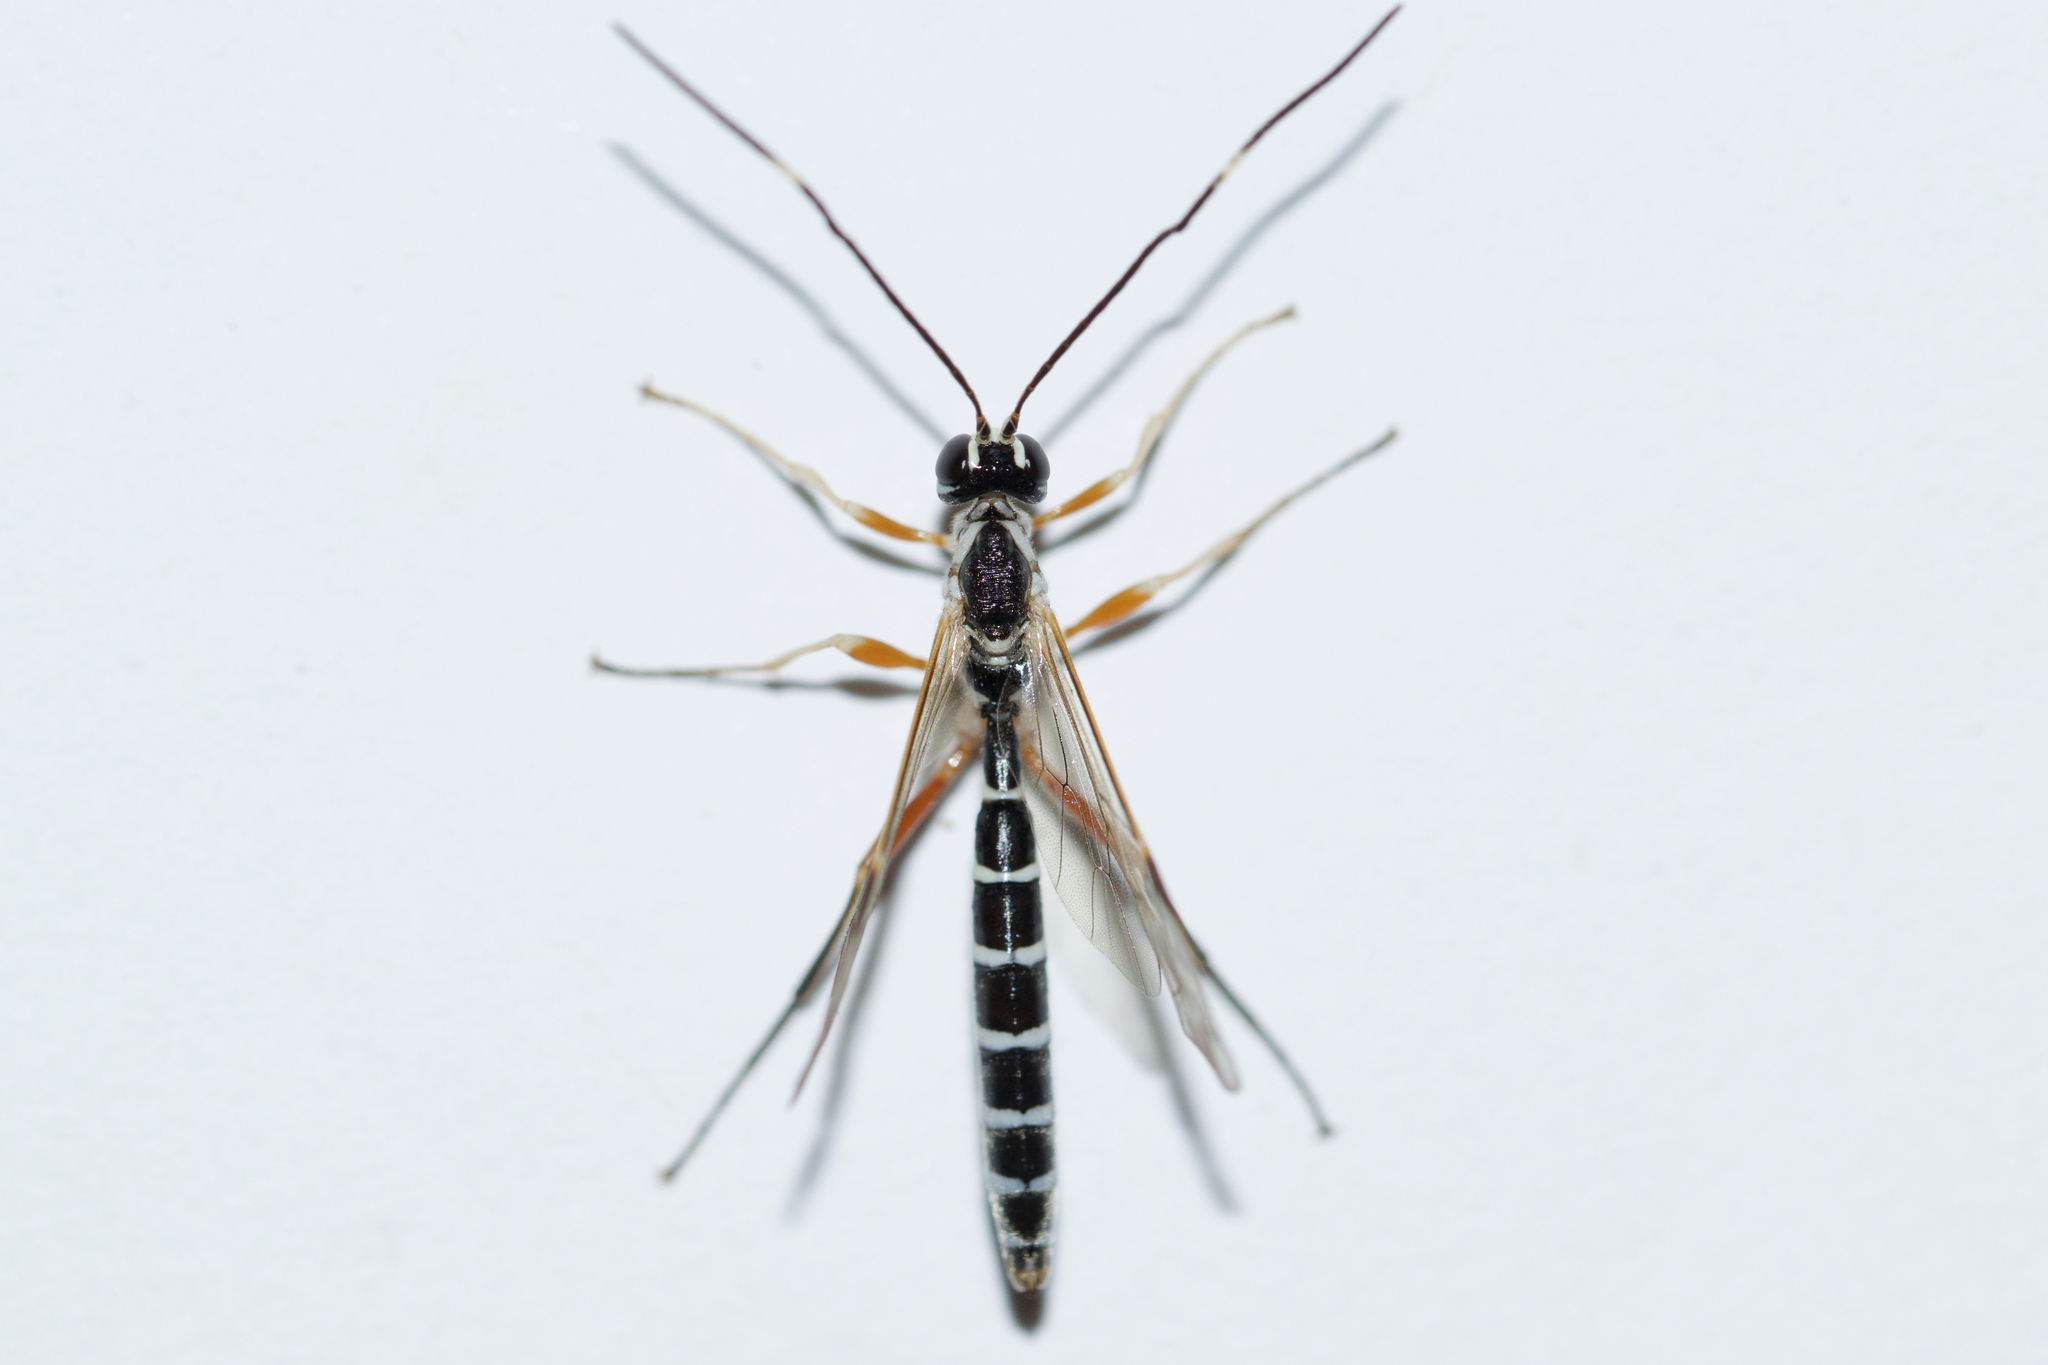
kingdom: Animalia
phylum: Arthropoda
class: Insecta
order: Hymenoptera
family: Ichneumonidae
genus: Rhyssa
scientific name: Rhyssa lineolata
